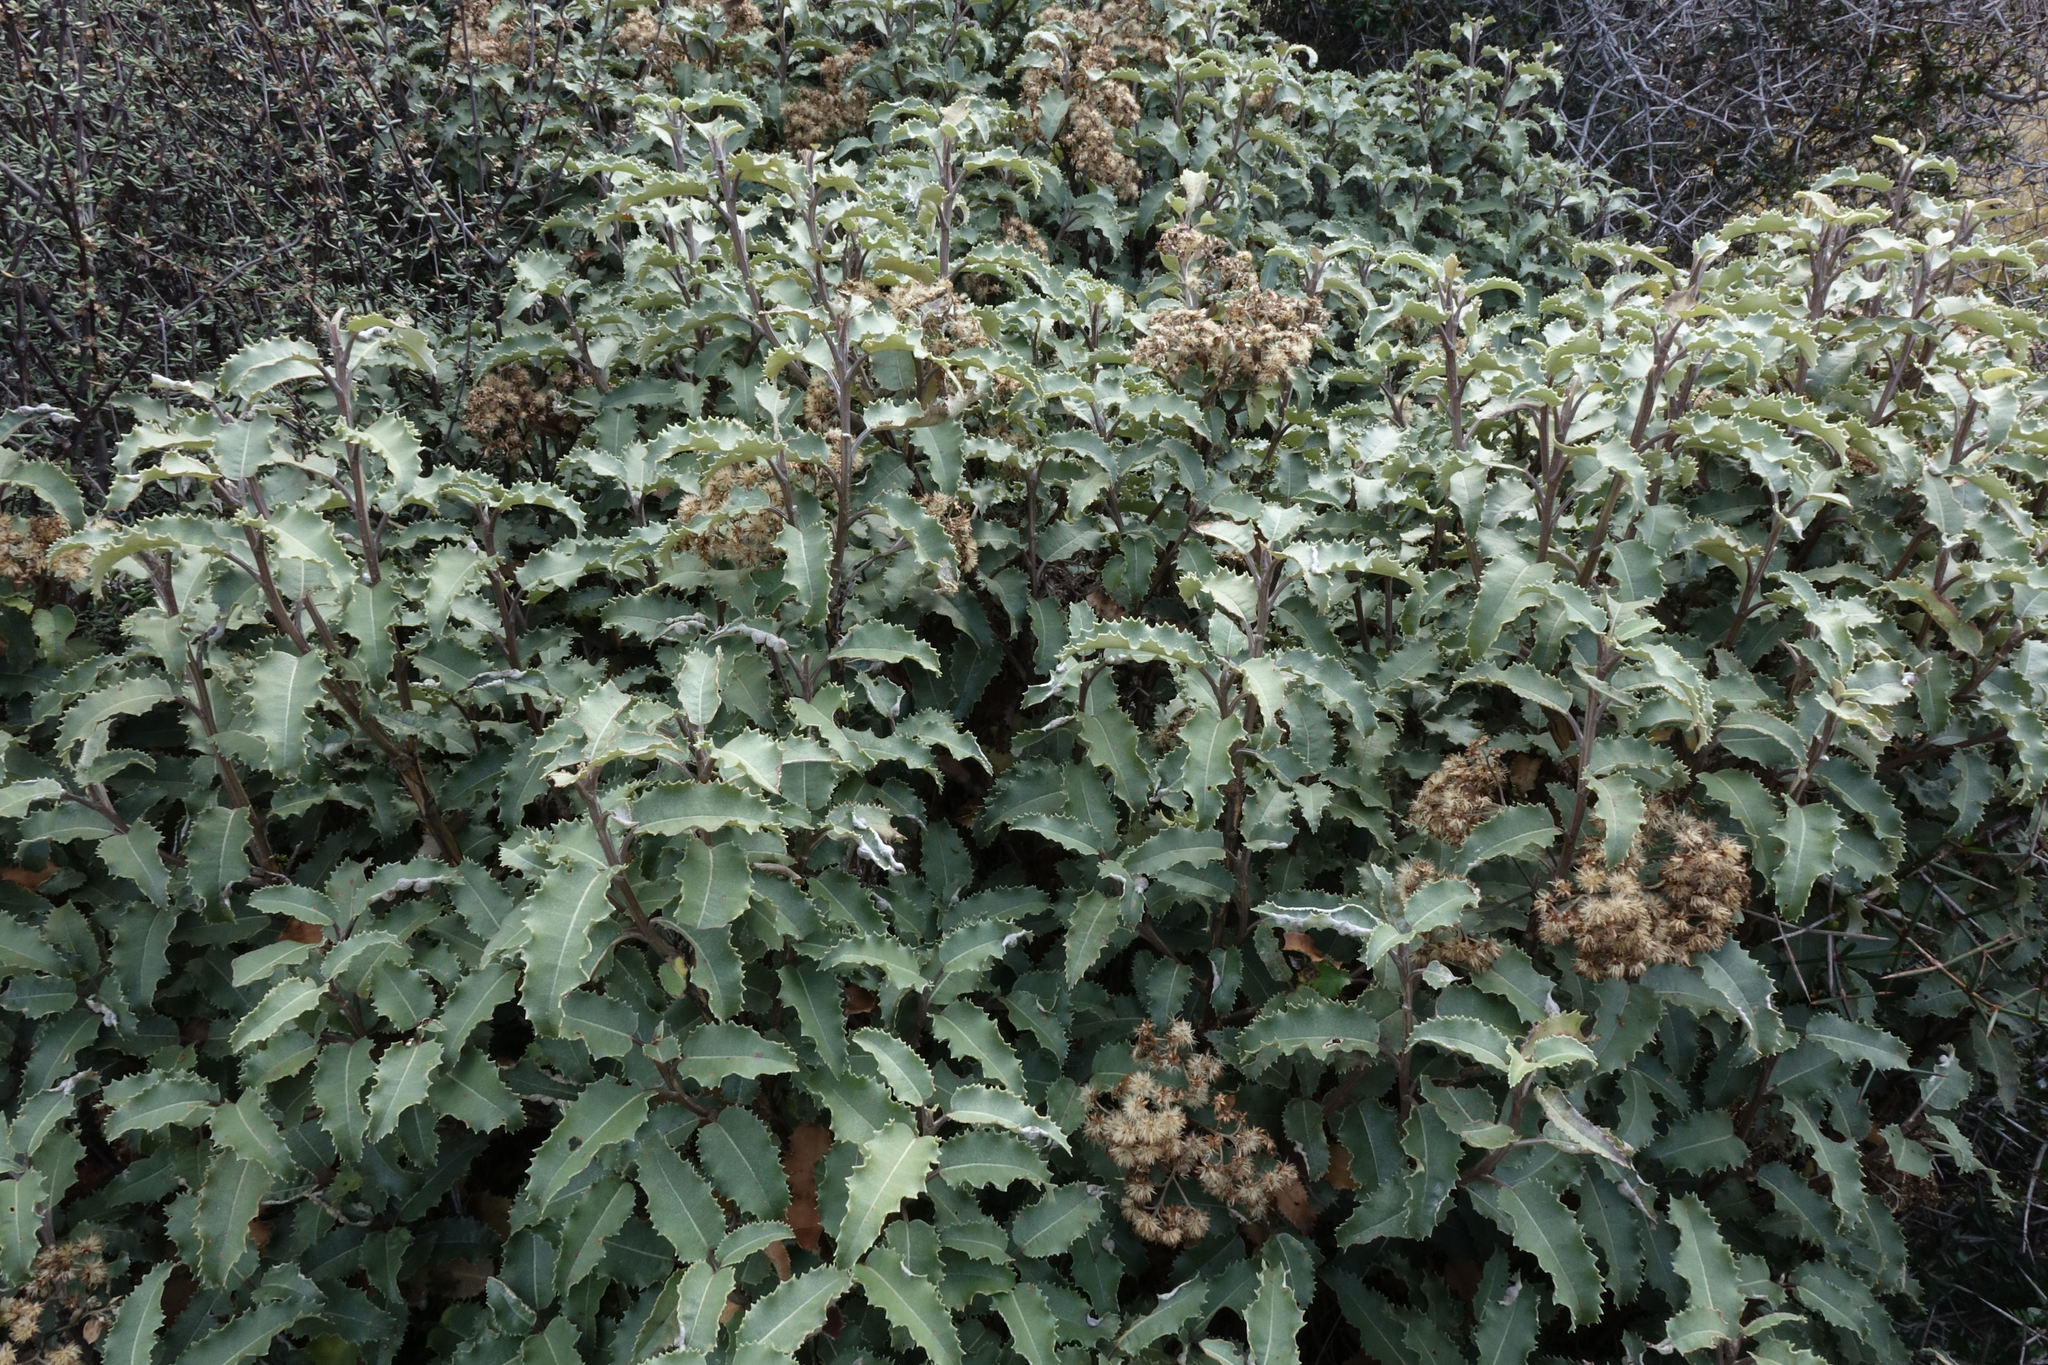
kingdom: Plantae
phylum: Tracheophyta
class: Magnoliopsida
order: Asterales
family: Asteraceae
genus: Olearia
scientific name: Olearia ilicifolia
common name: Maori-holly
